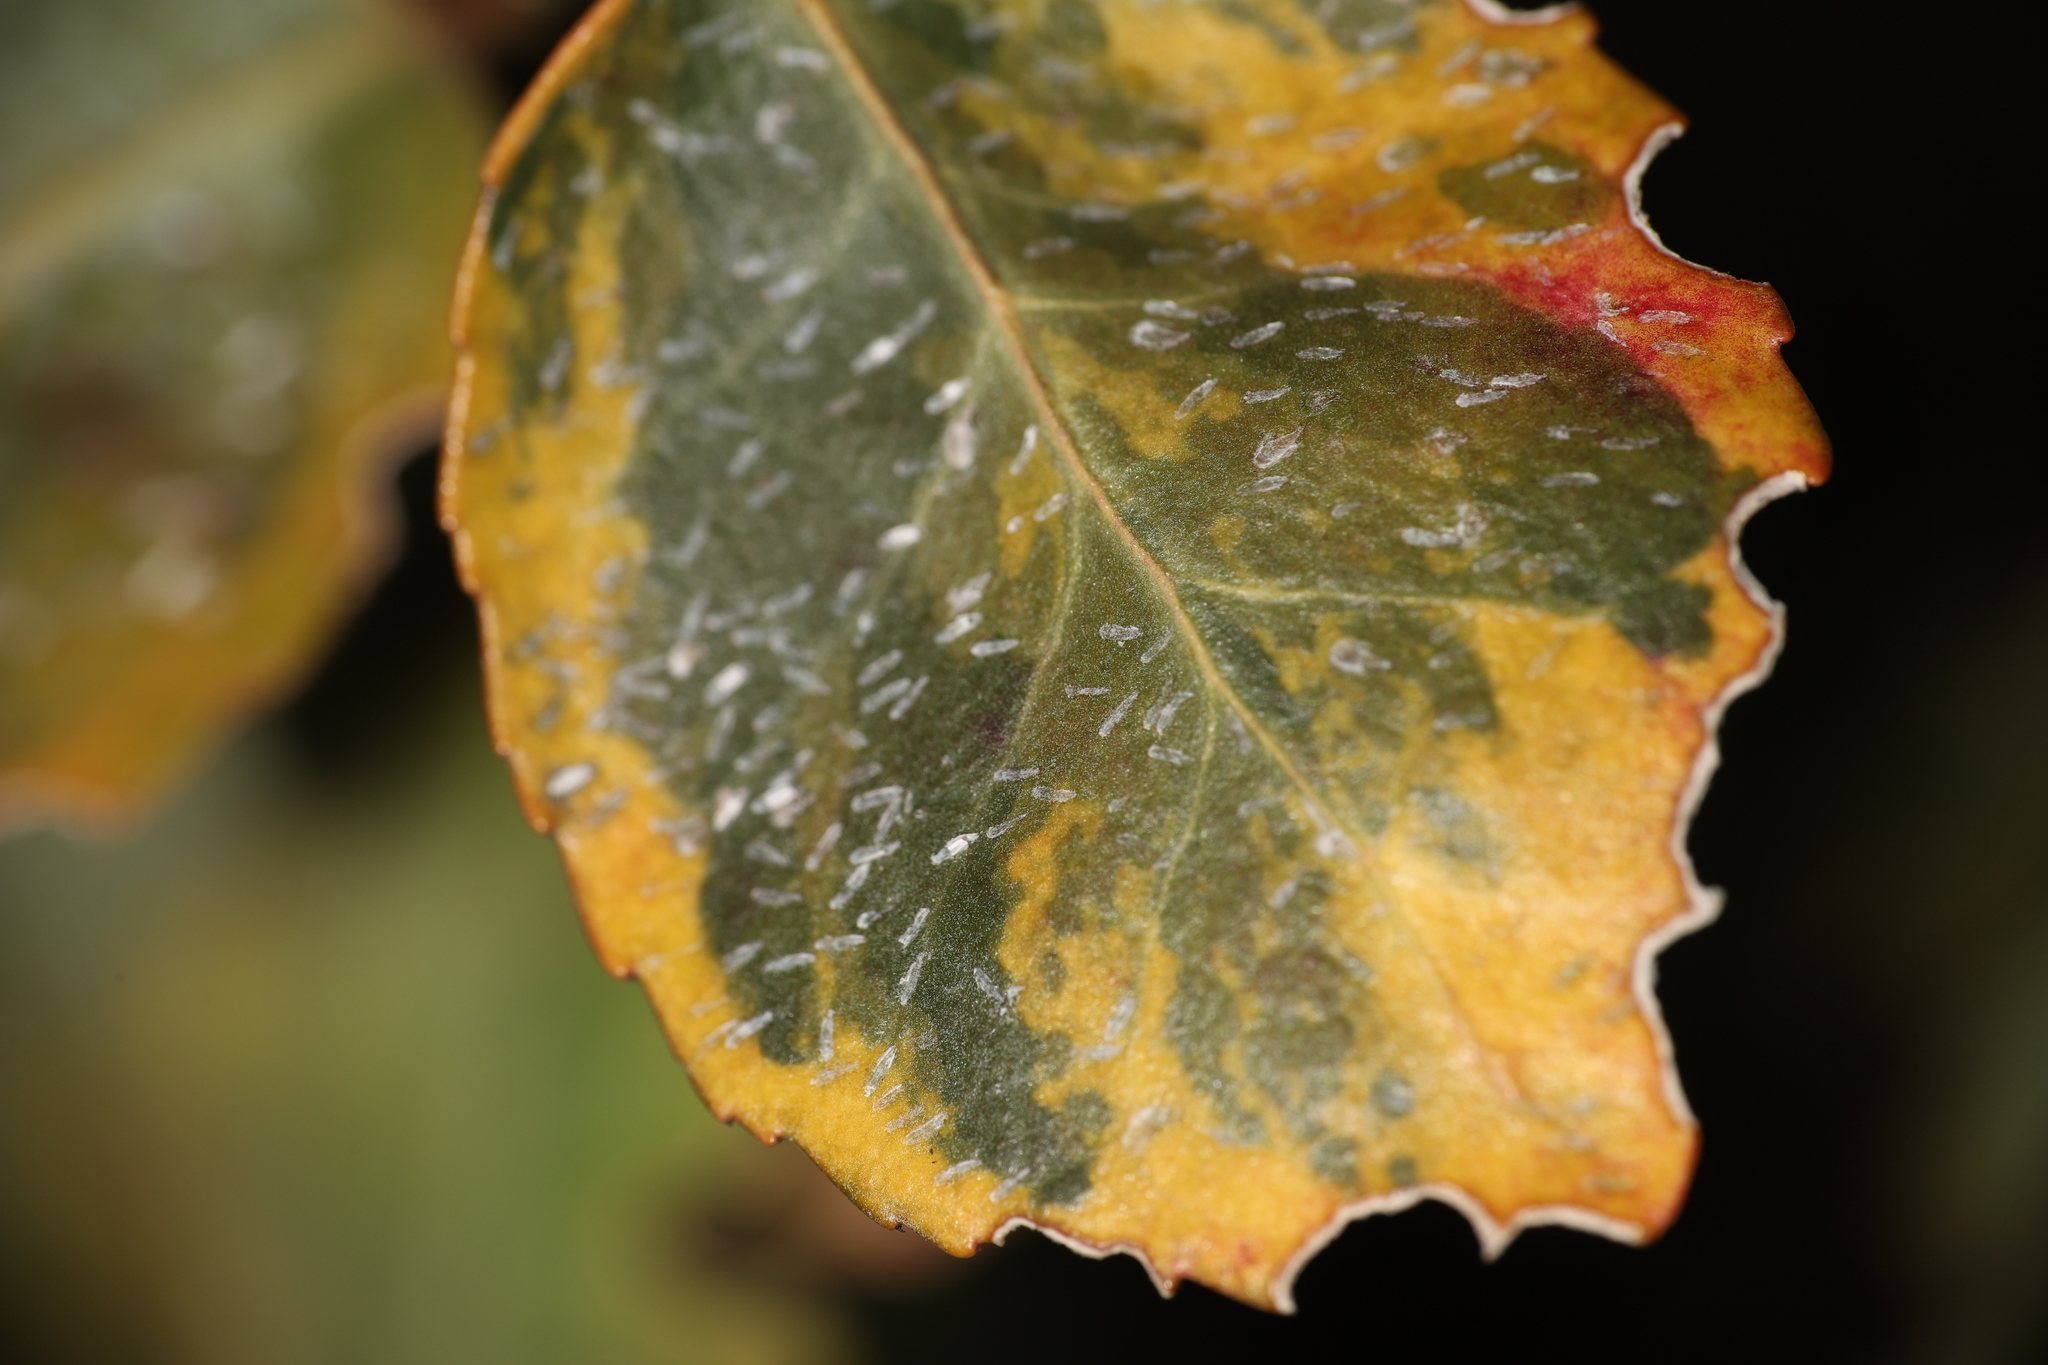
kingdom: Animalia
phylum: Arthropoda
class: Insecta
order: Hemiptera
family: Diaspididae
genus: Unaspis
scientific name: Unaspis euonymi
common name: Euonymus scale
